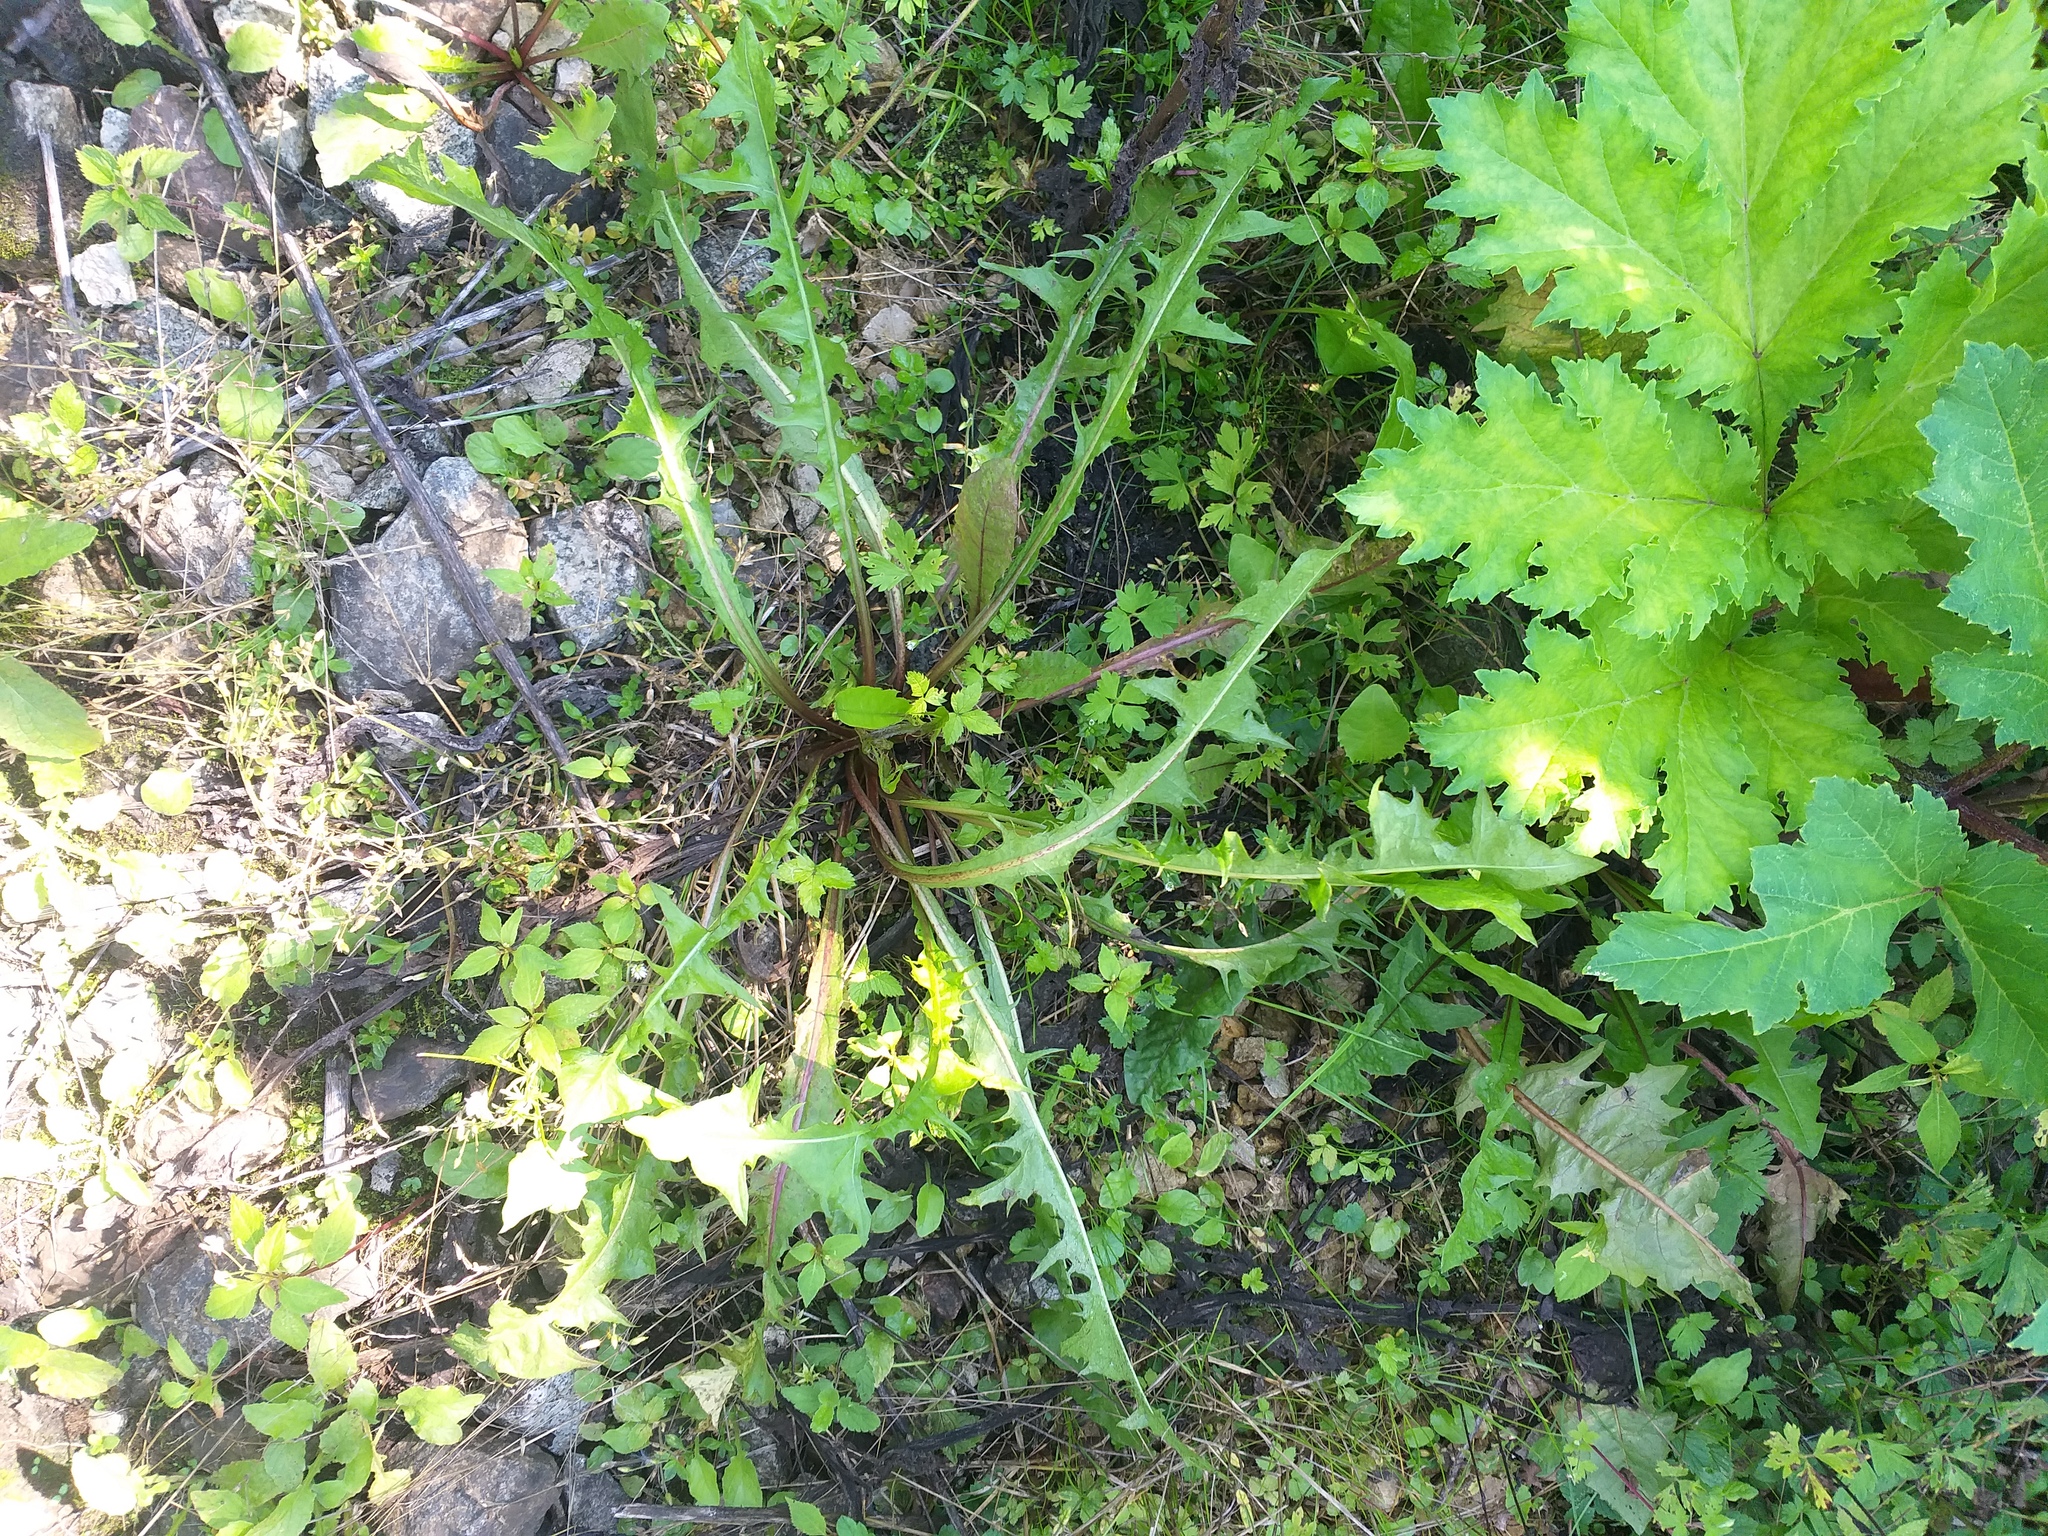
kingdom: Plantae
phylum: Tracheophyta
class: Magnoliopsida
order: Asterales
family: Asteraceae
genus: Taraxacum
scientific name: Taraxacum officinale
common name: Common dandelion
